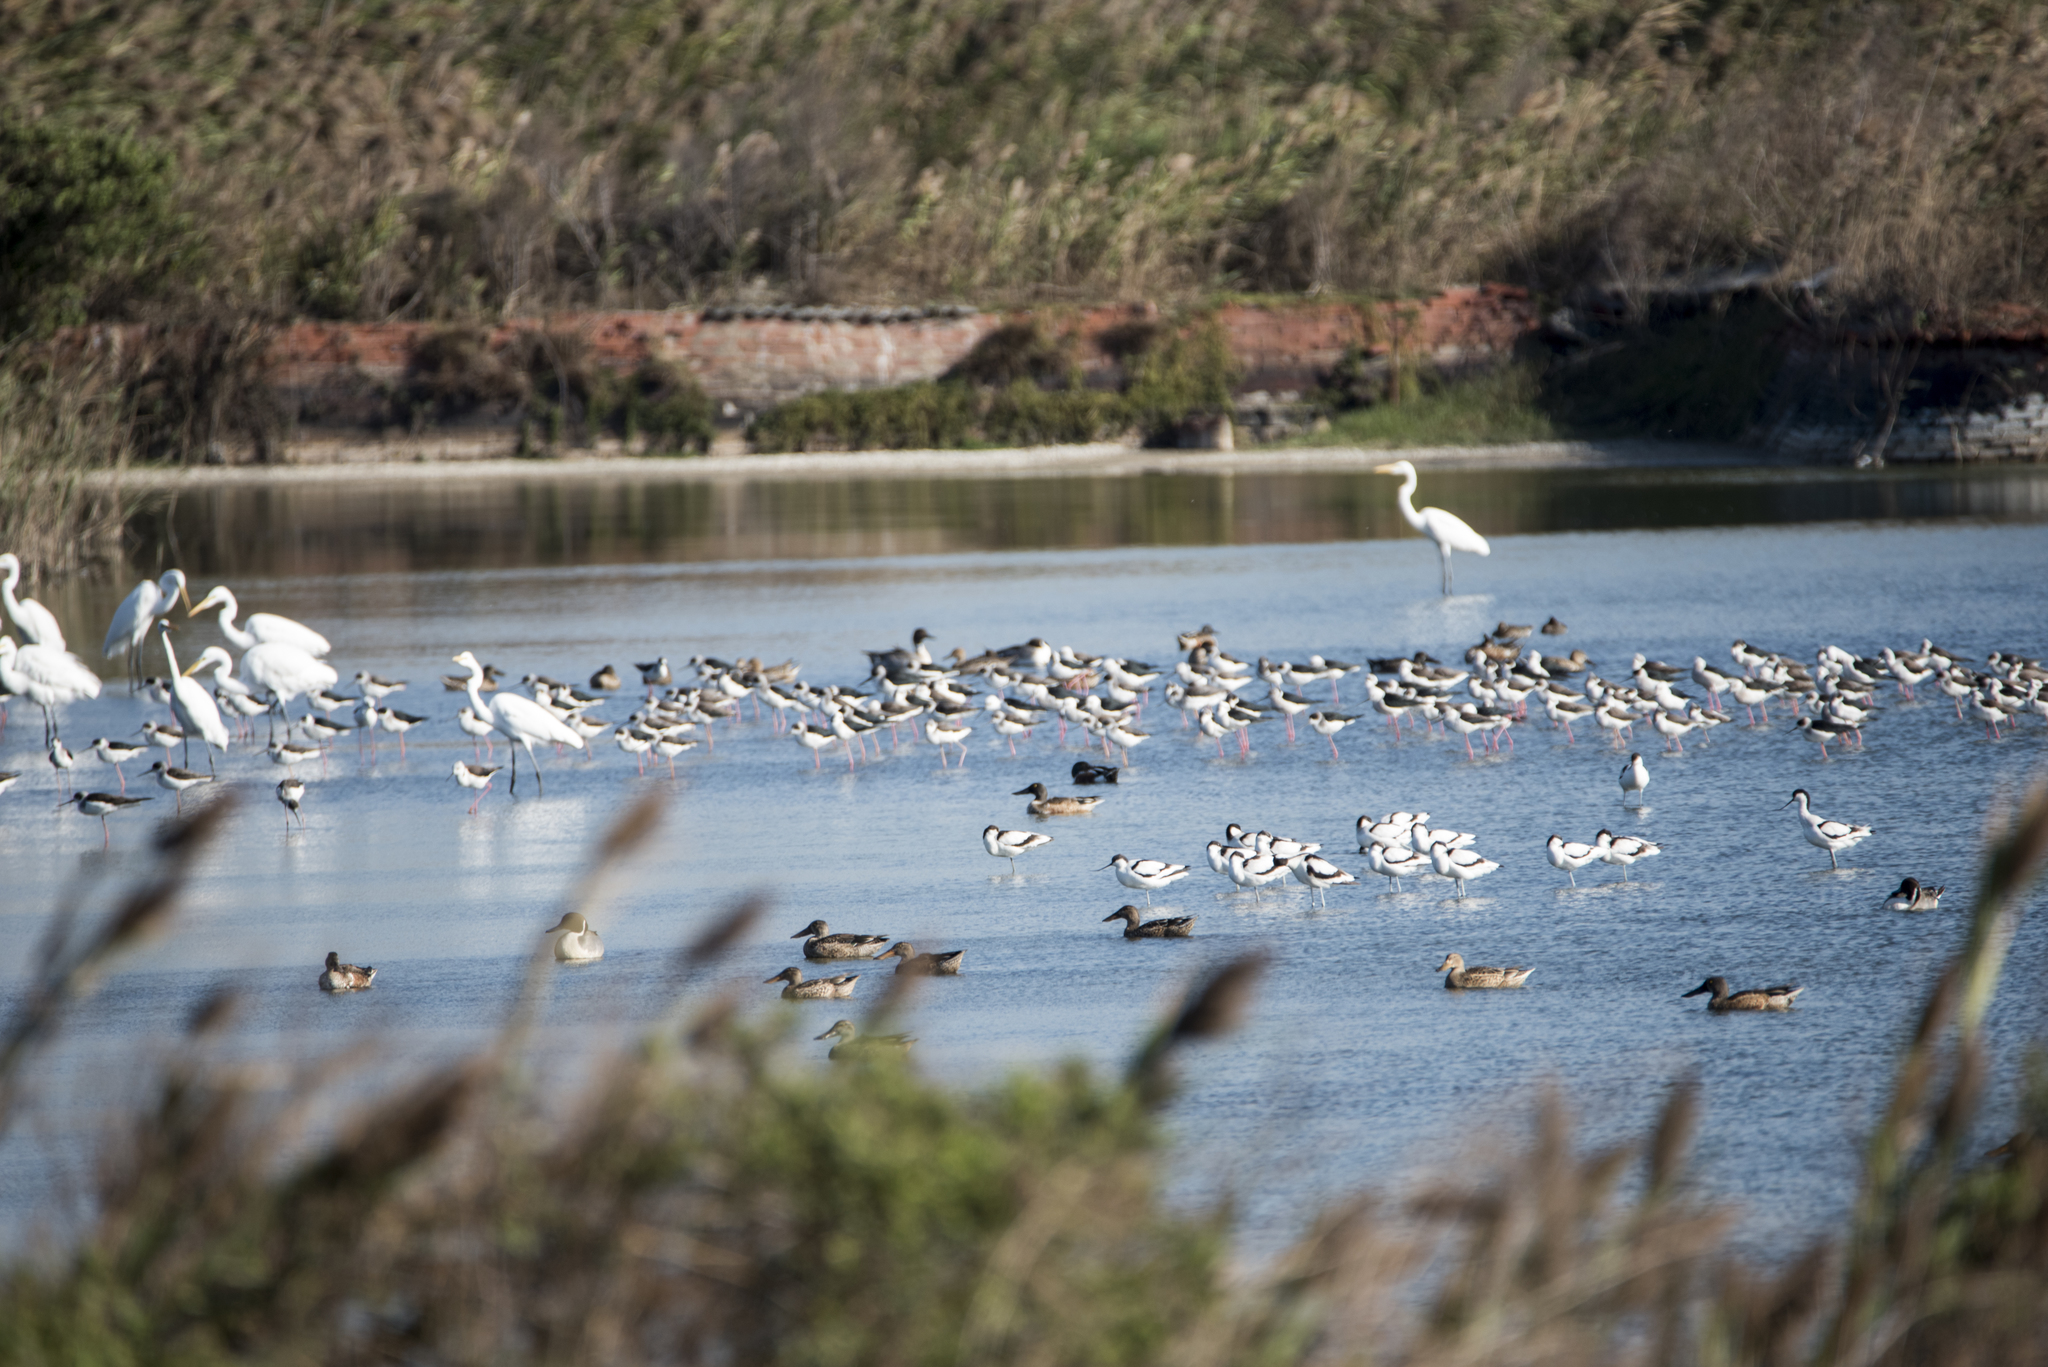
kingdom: Animalia
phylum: Chordata
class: Aves
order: Charadriiformes
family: Recurvirostridae
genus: Recurvirostra
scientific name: Recurvirostra avosetta
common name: Pied avocet
